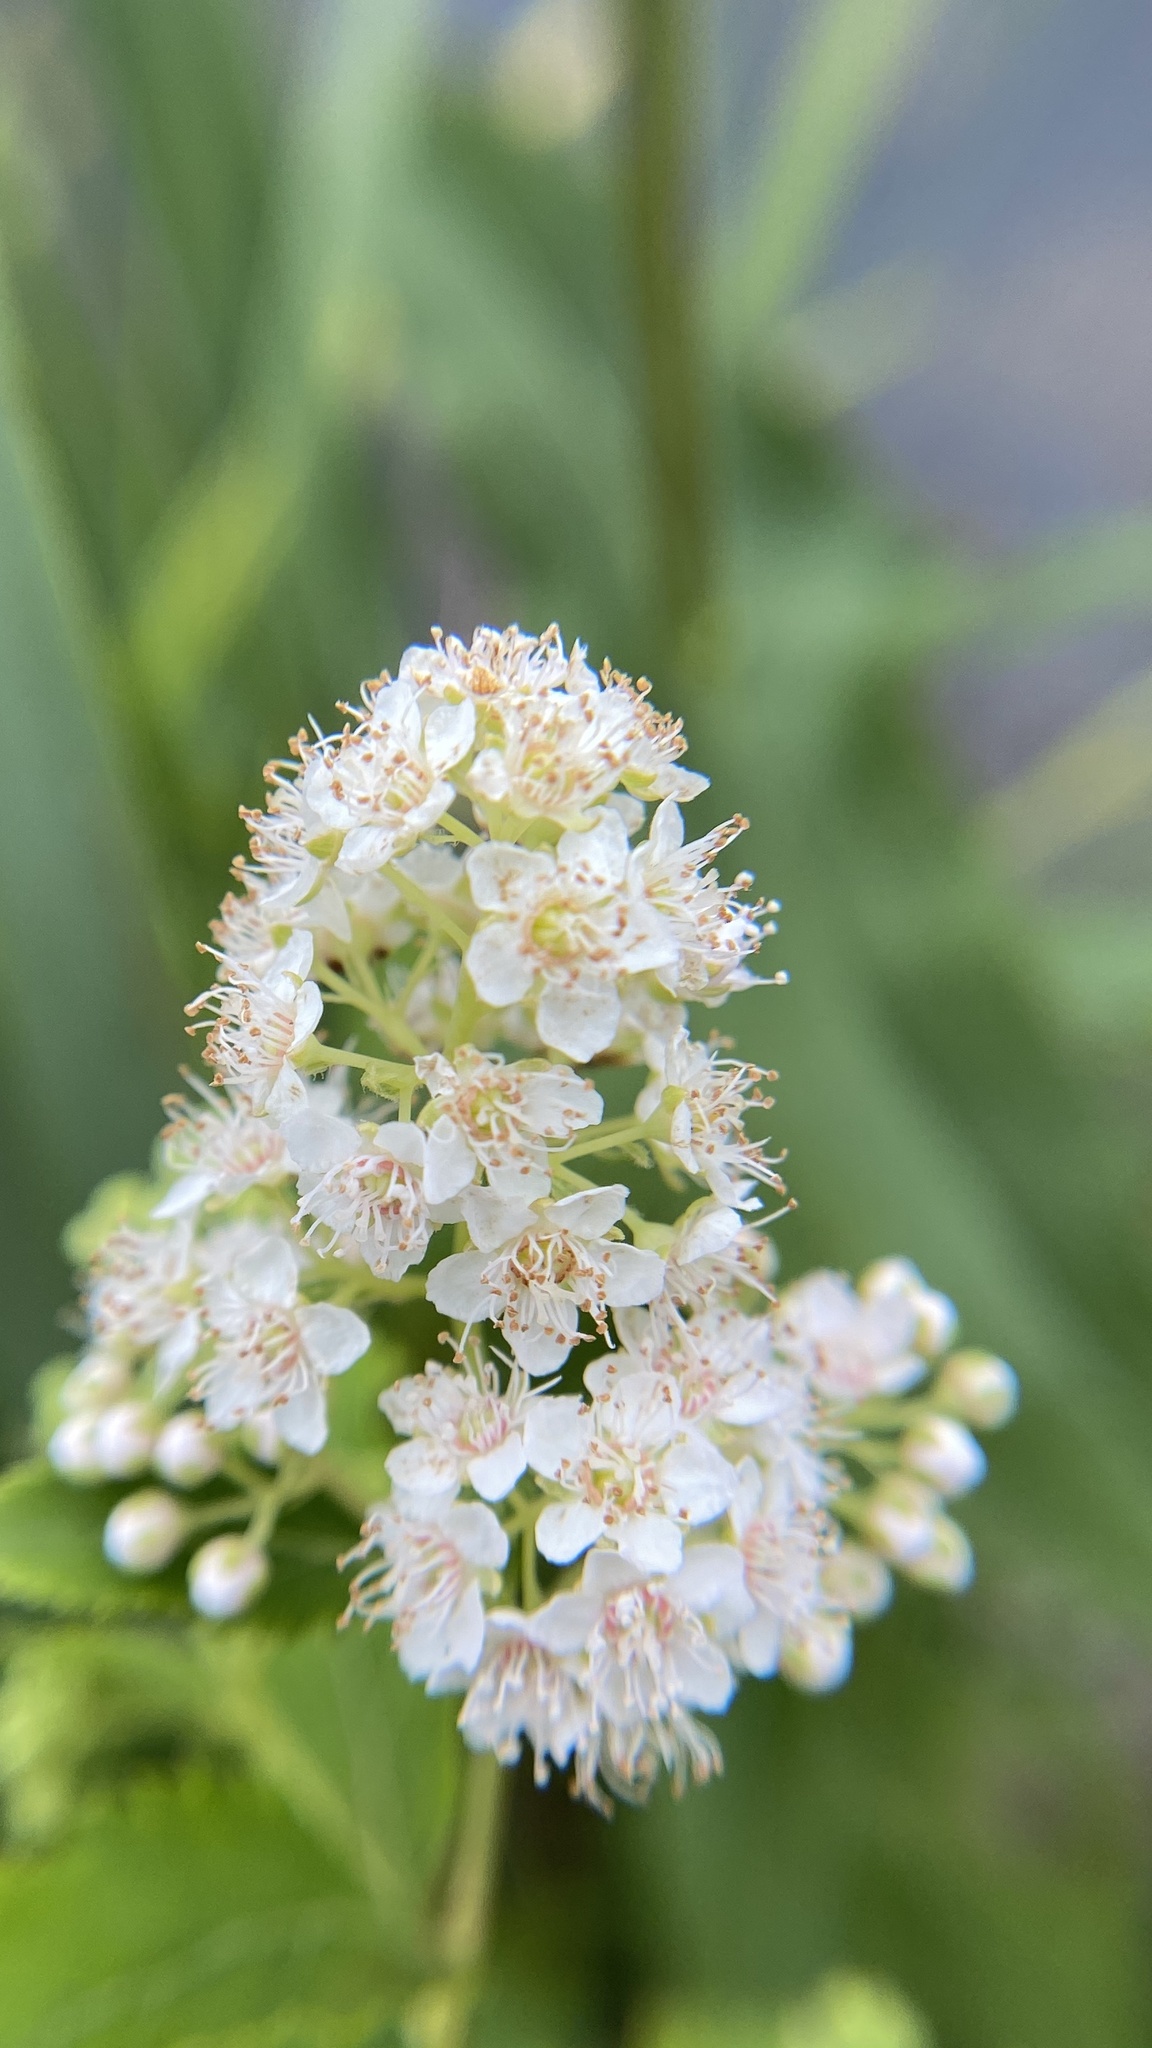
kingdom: Plantae
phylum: Tracheophyta
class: Magnoliopsida
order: Rosales
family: Rosaceae
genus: Spiraea
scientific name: Spiraea alba
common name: Pale bridewort
